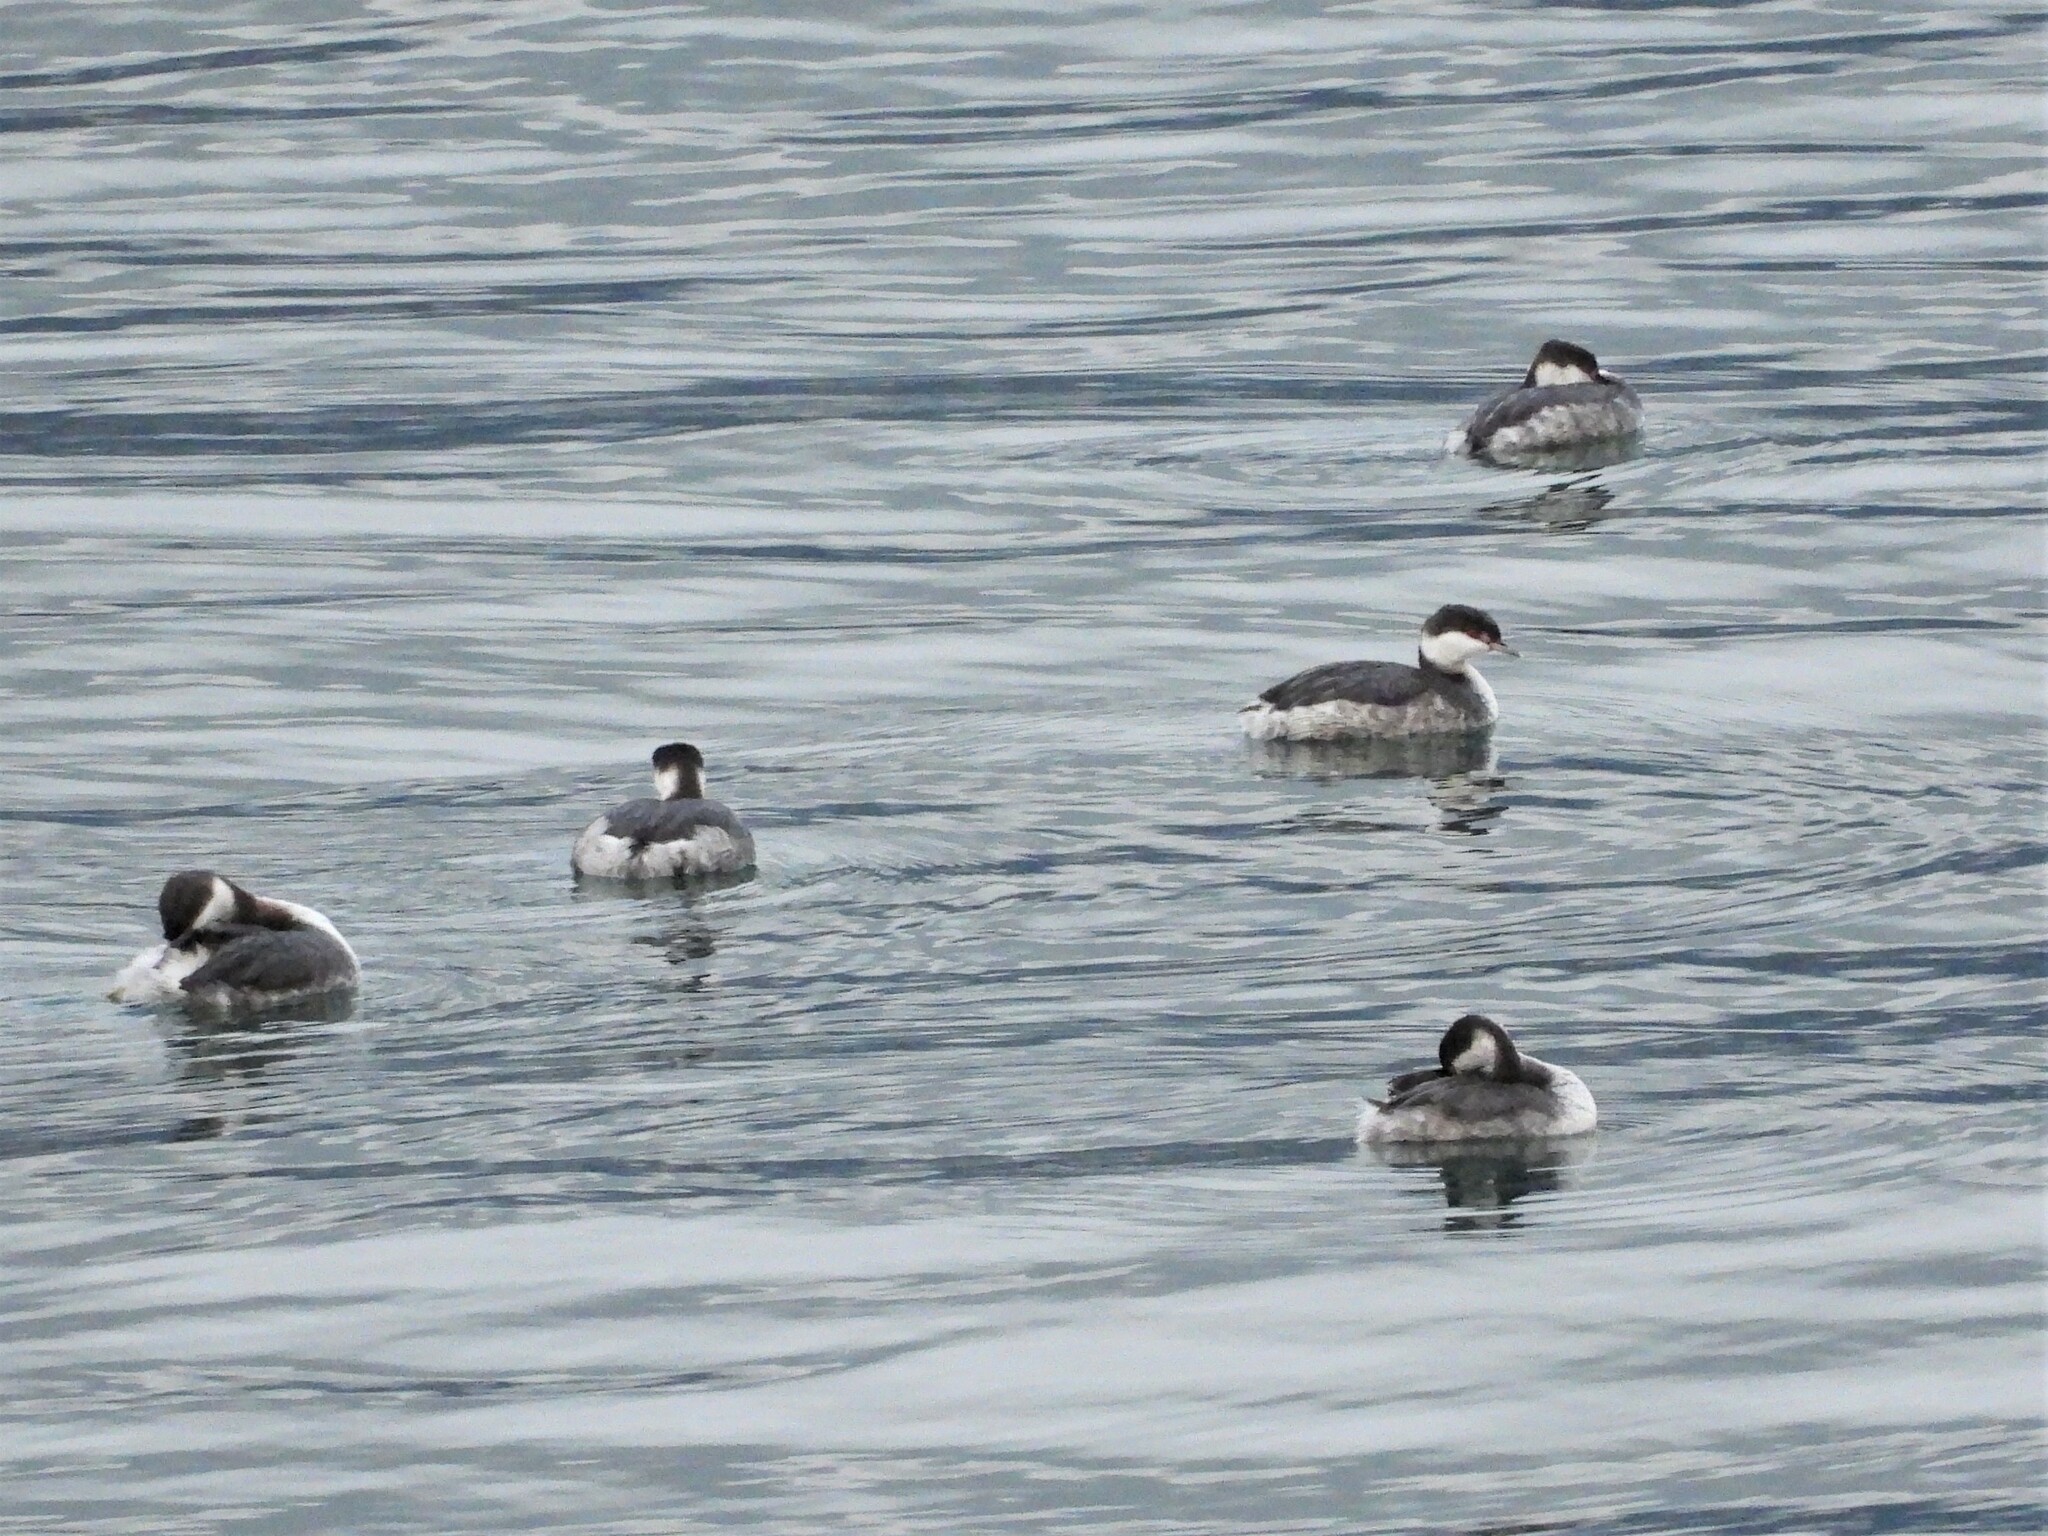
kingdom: Animalia
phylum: Chordata
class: Aves
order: Podicipediformes
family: Podicipedidae
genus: Podiceps
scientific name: Podiceps auritus
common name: Horned grebe
